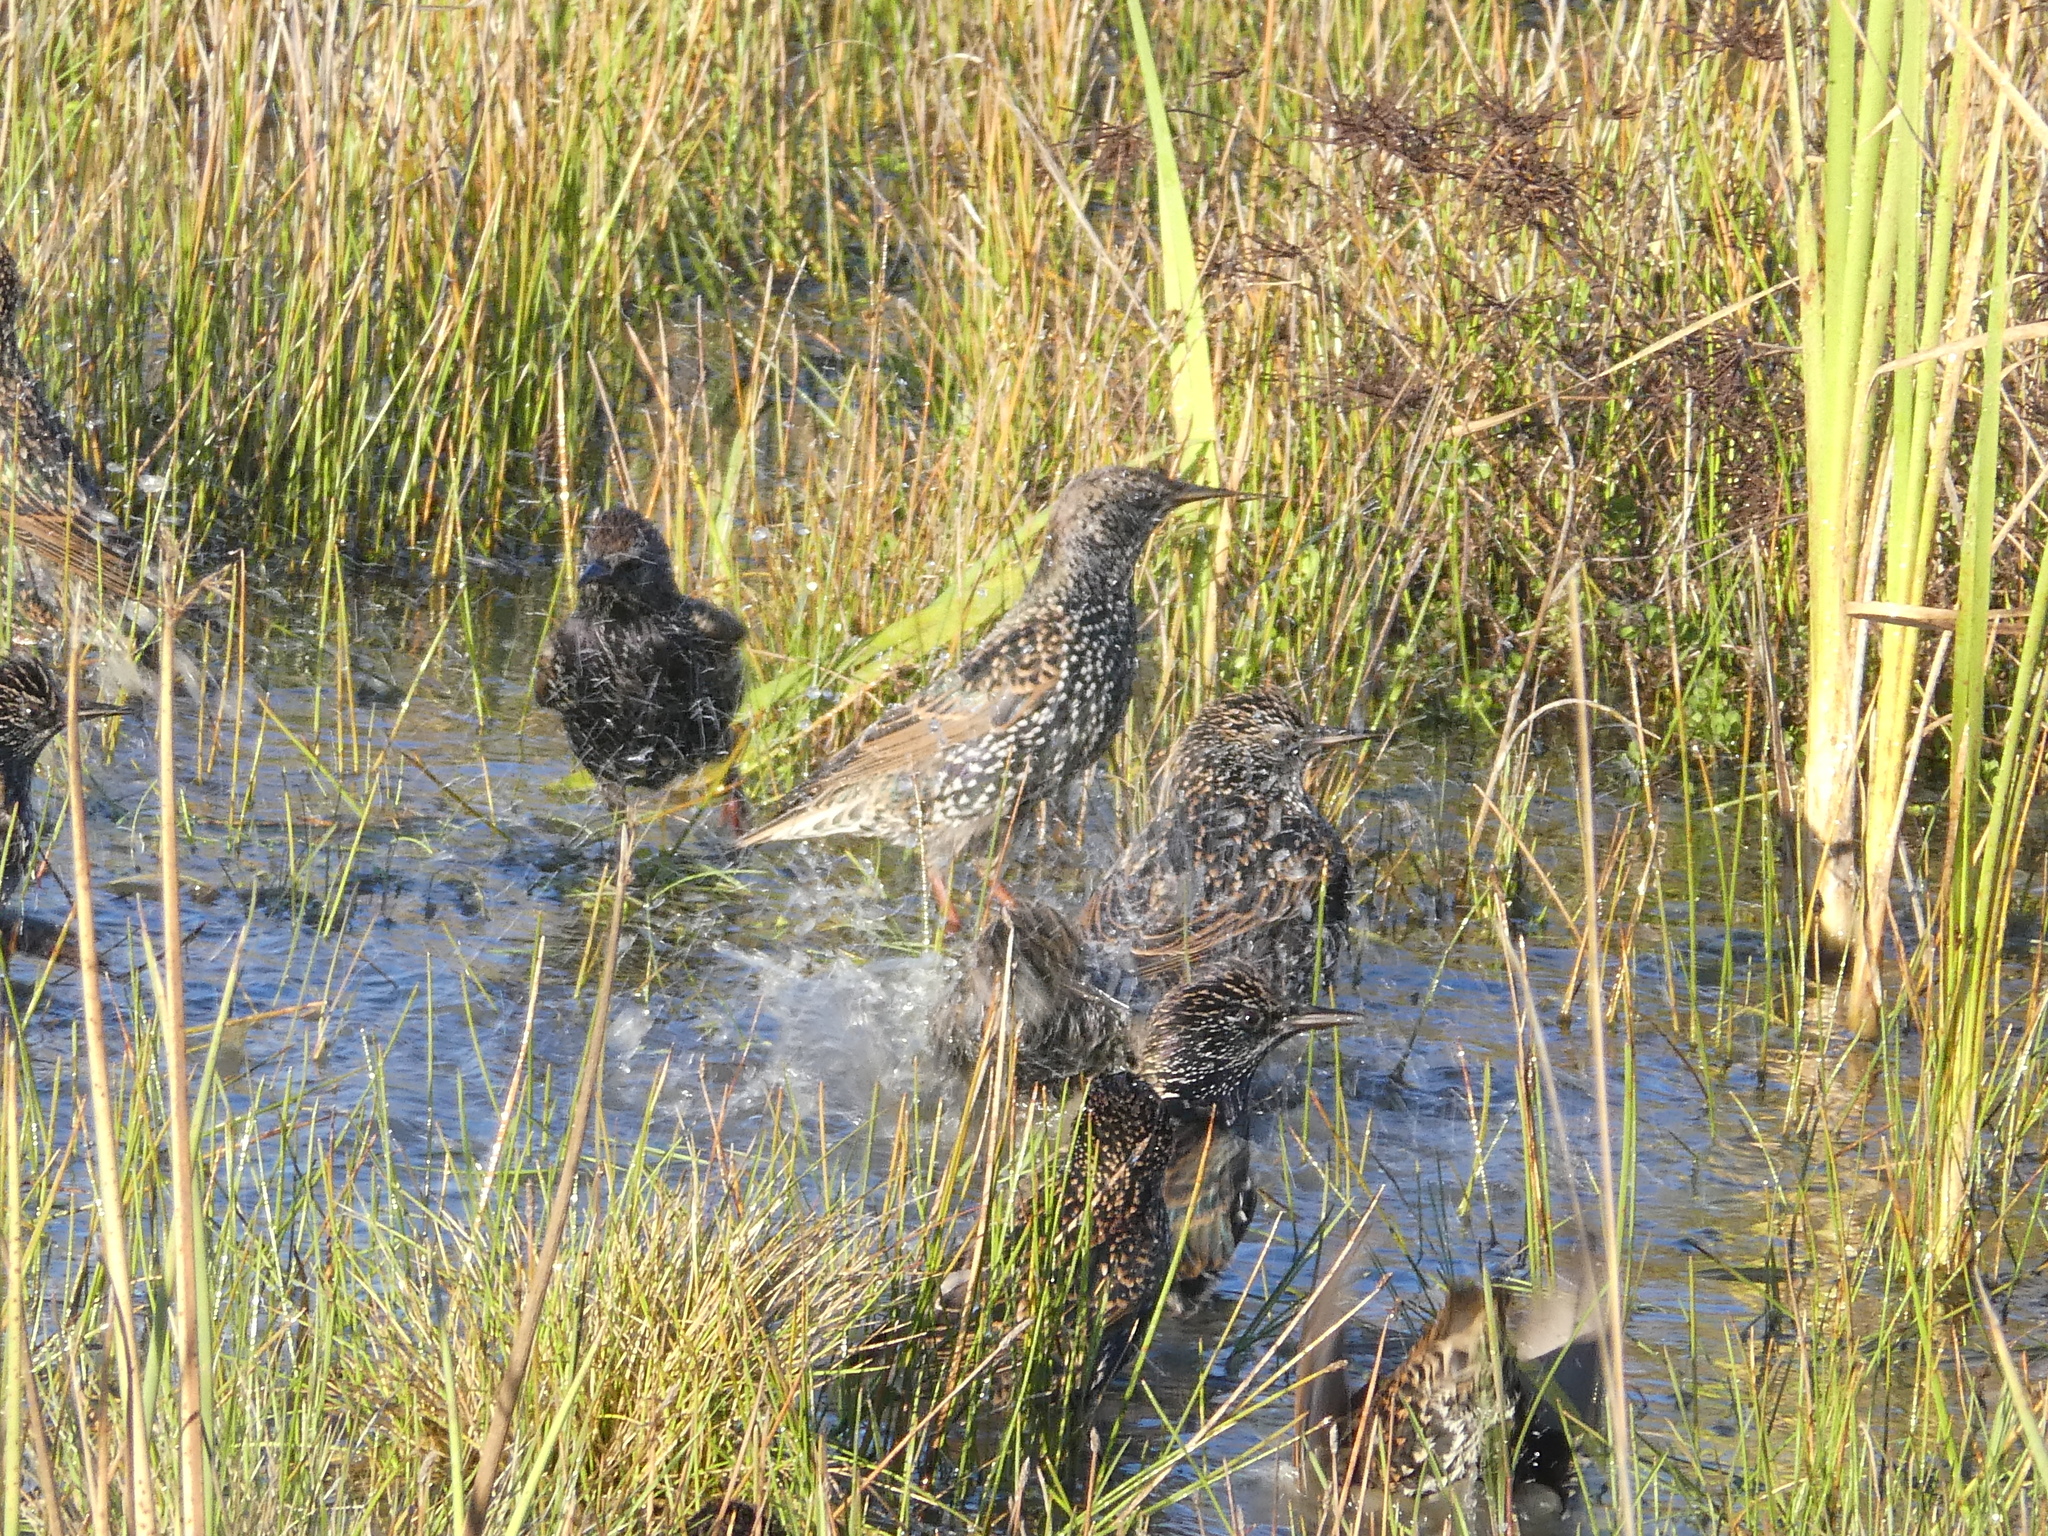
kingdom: Animalia
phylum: Chordata
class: Aves
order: Passeriformes
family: Sturnidae
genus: Sturnus
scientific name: Sturnus vulgaris
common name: Common starling
